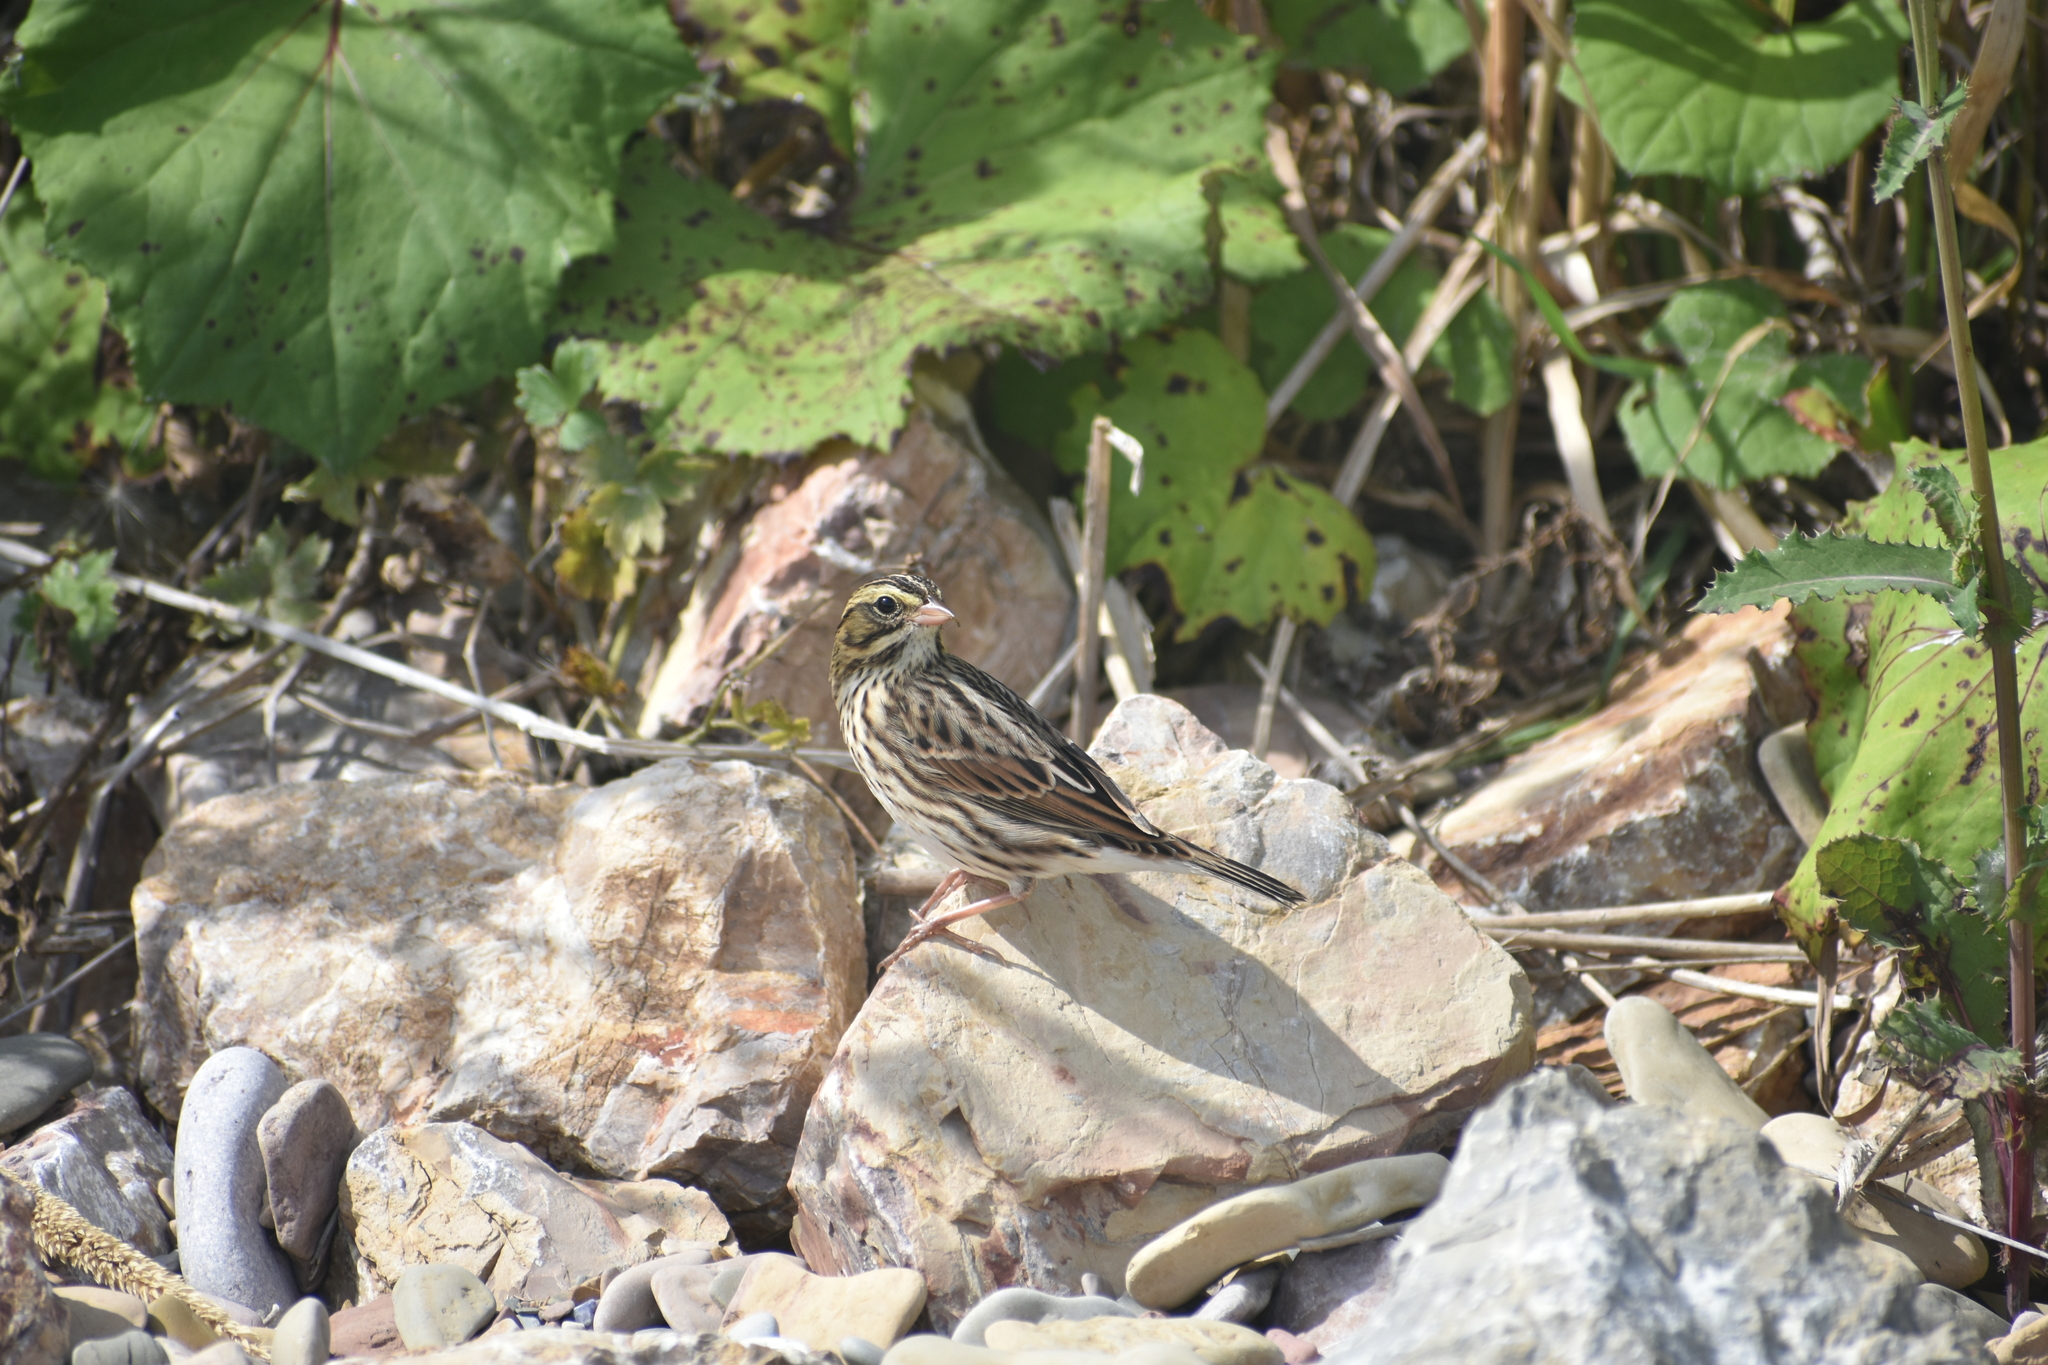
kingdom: Animalia
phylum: Chordata
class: Aves
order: Passeriformes
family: Passerellidae
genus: Passerculus
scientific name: Passerculus sandwichensis
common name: Savannah sparrow
